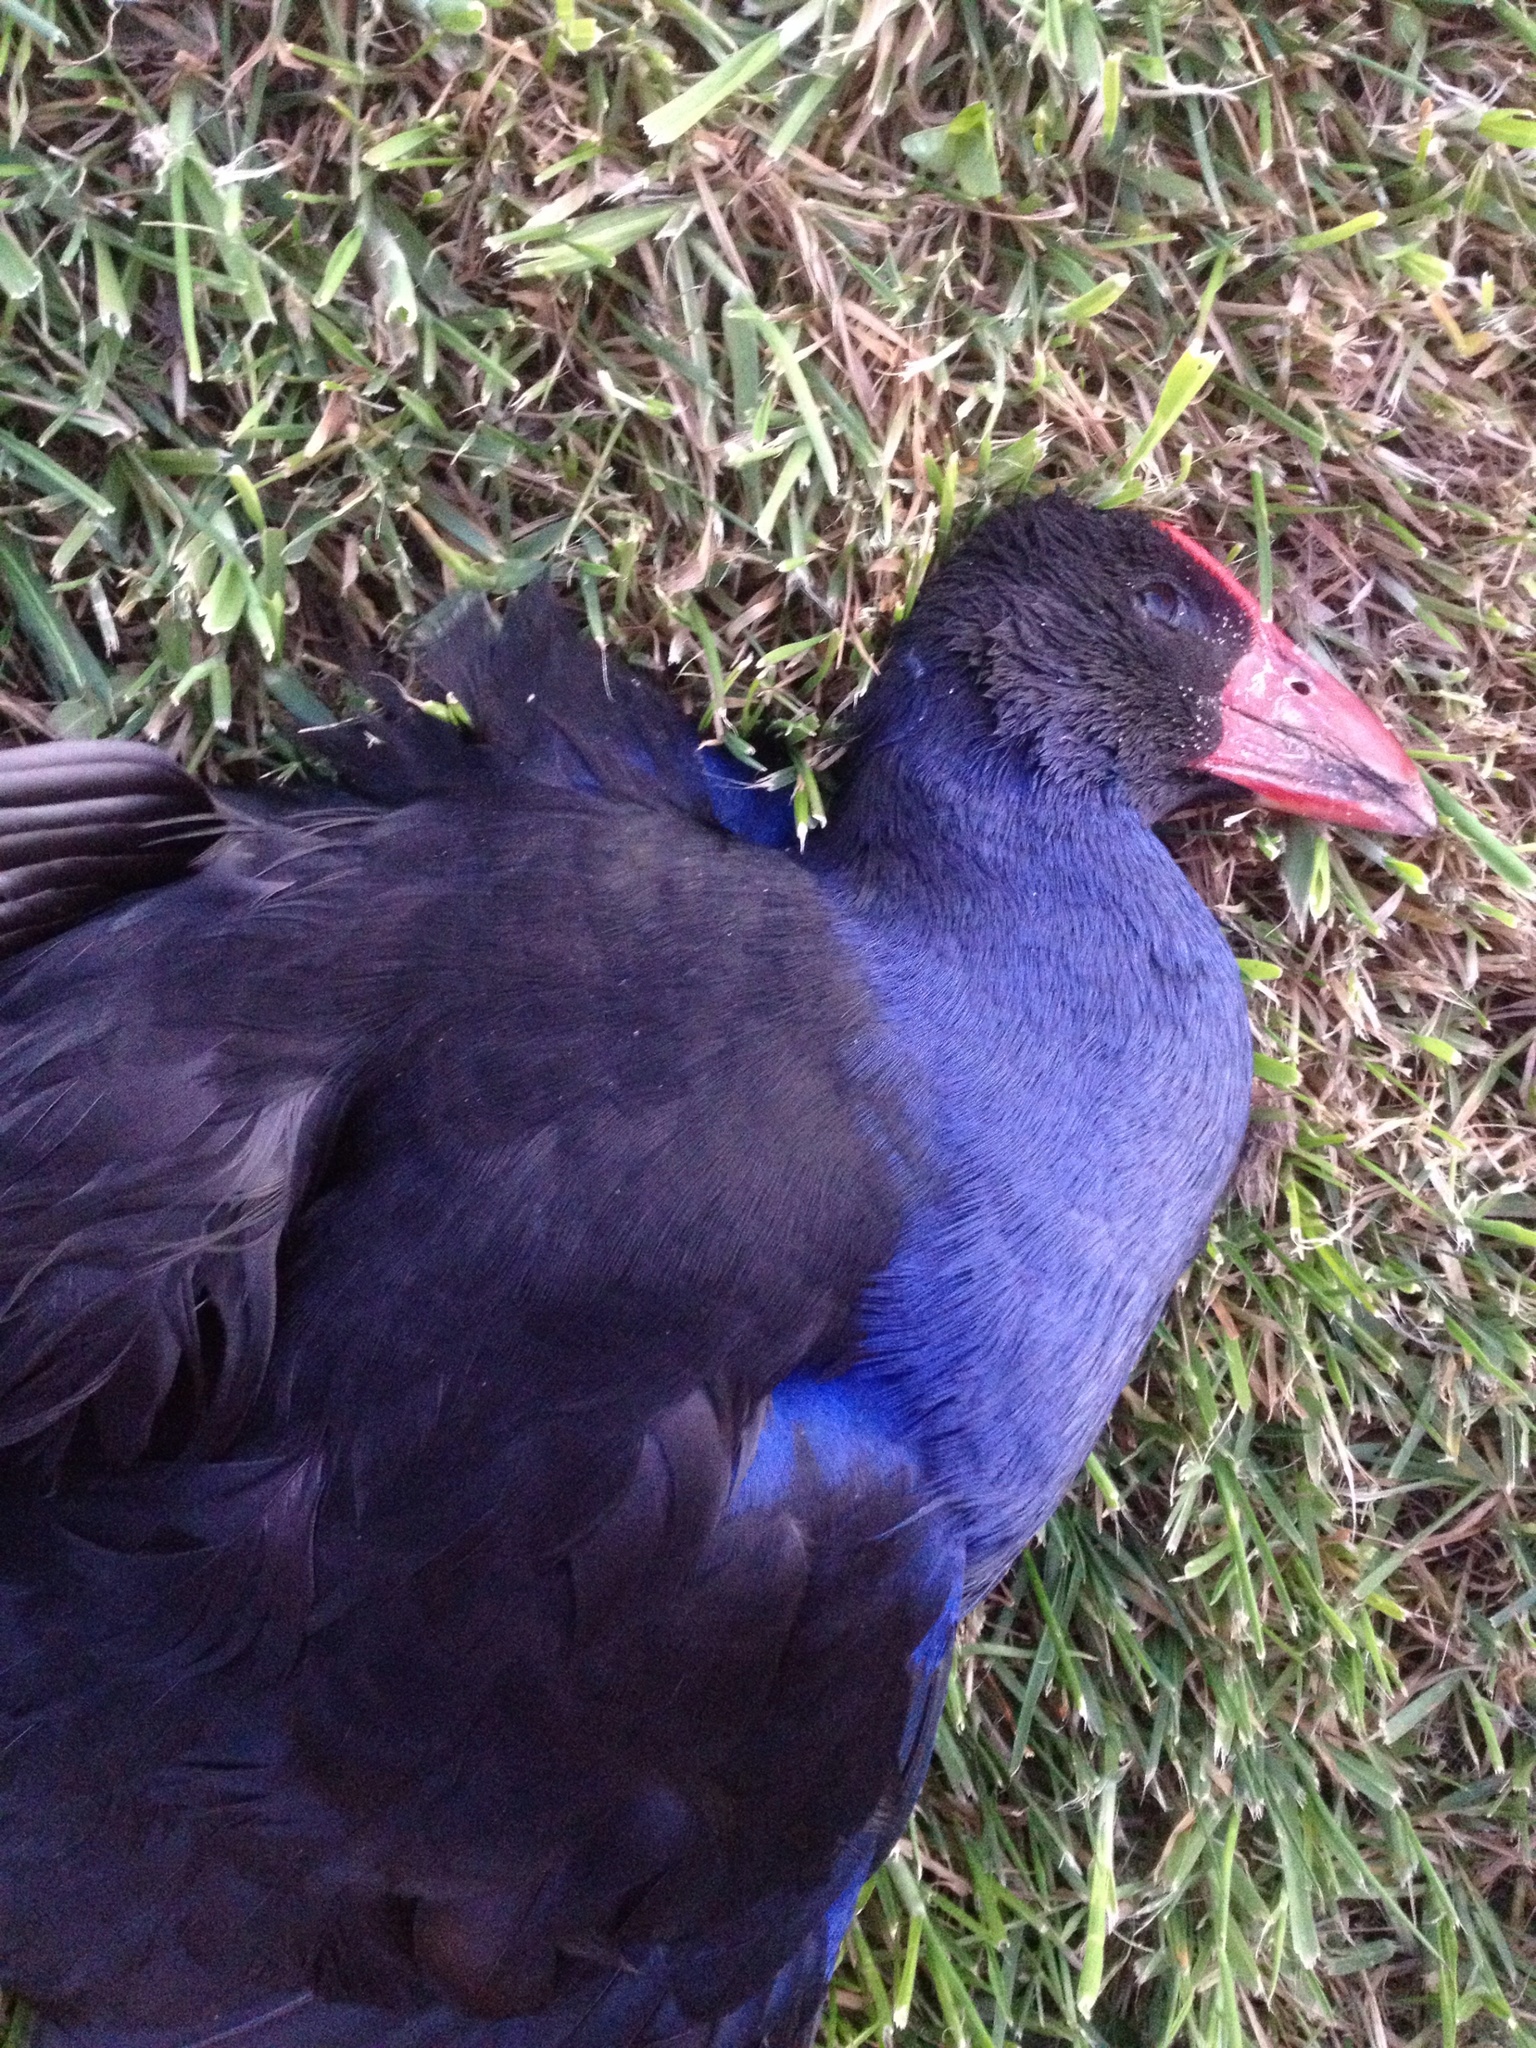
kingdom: Animalia
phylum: Chordata
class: Aves
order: Gruiformes
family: Rallidae
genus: Porphyrio
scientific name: Porphyrio melanotus
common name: Australasian swamphen
